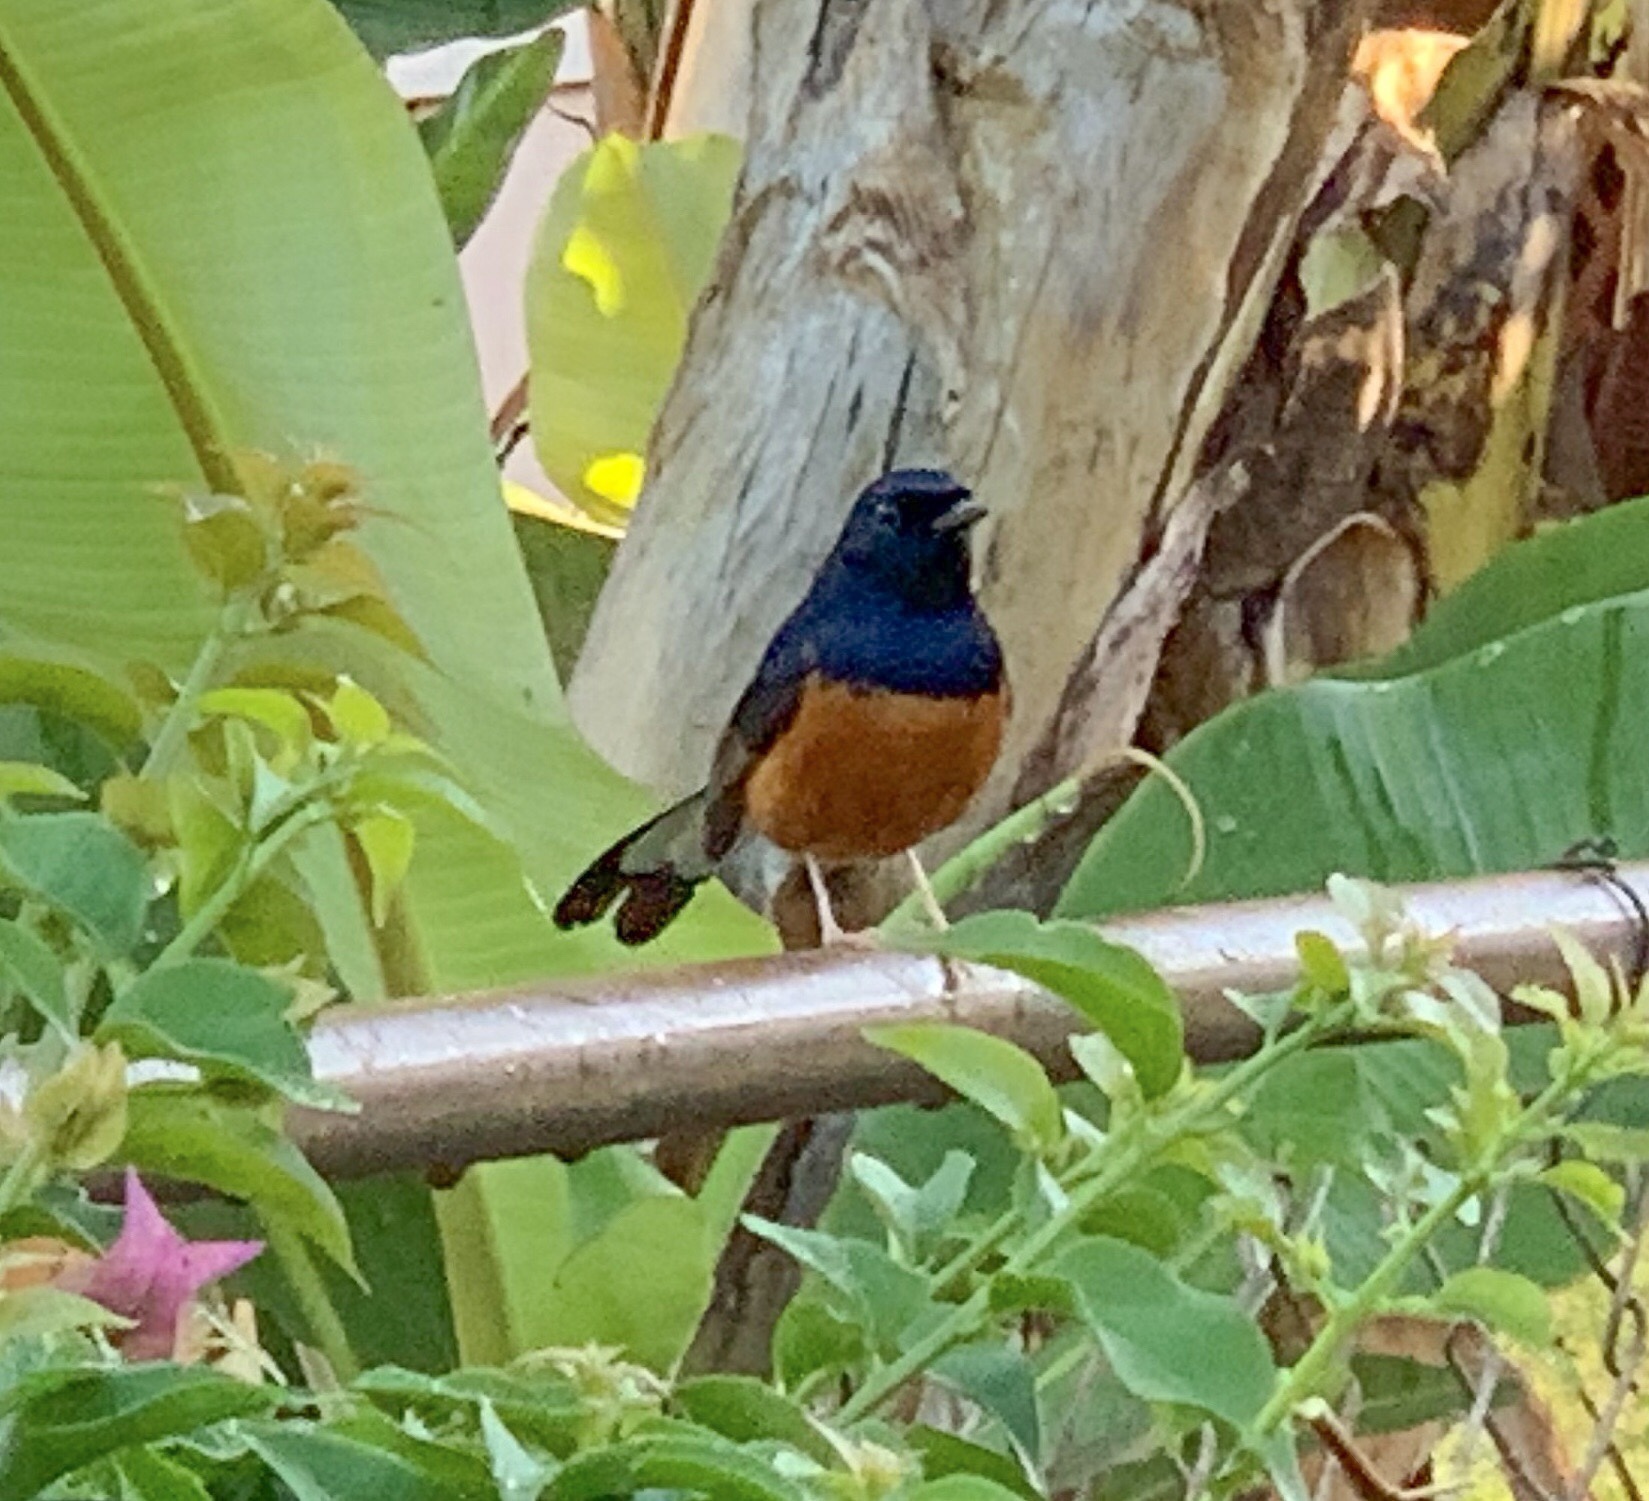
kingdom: Animalia
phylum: Chordata
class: Aves
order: Passeriformes
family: Muscicapidae
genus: Copsychus
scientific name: Copsychus malabaricus
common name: White-rumped shama
